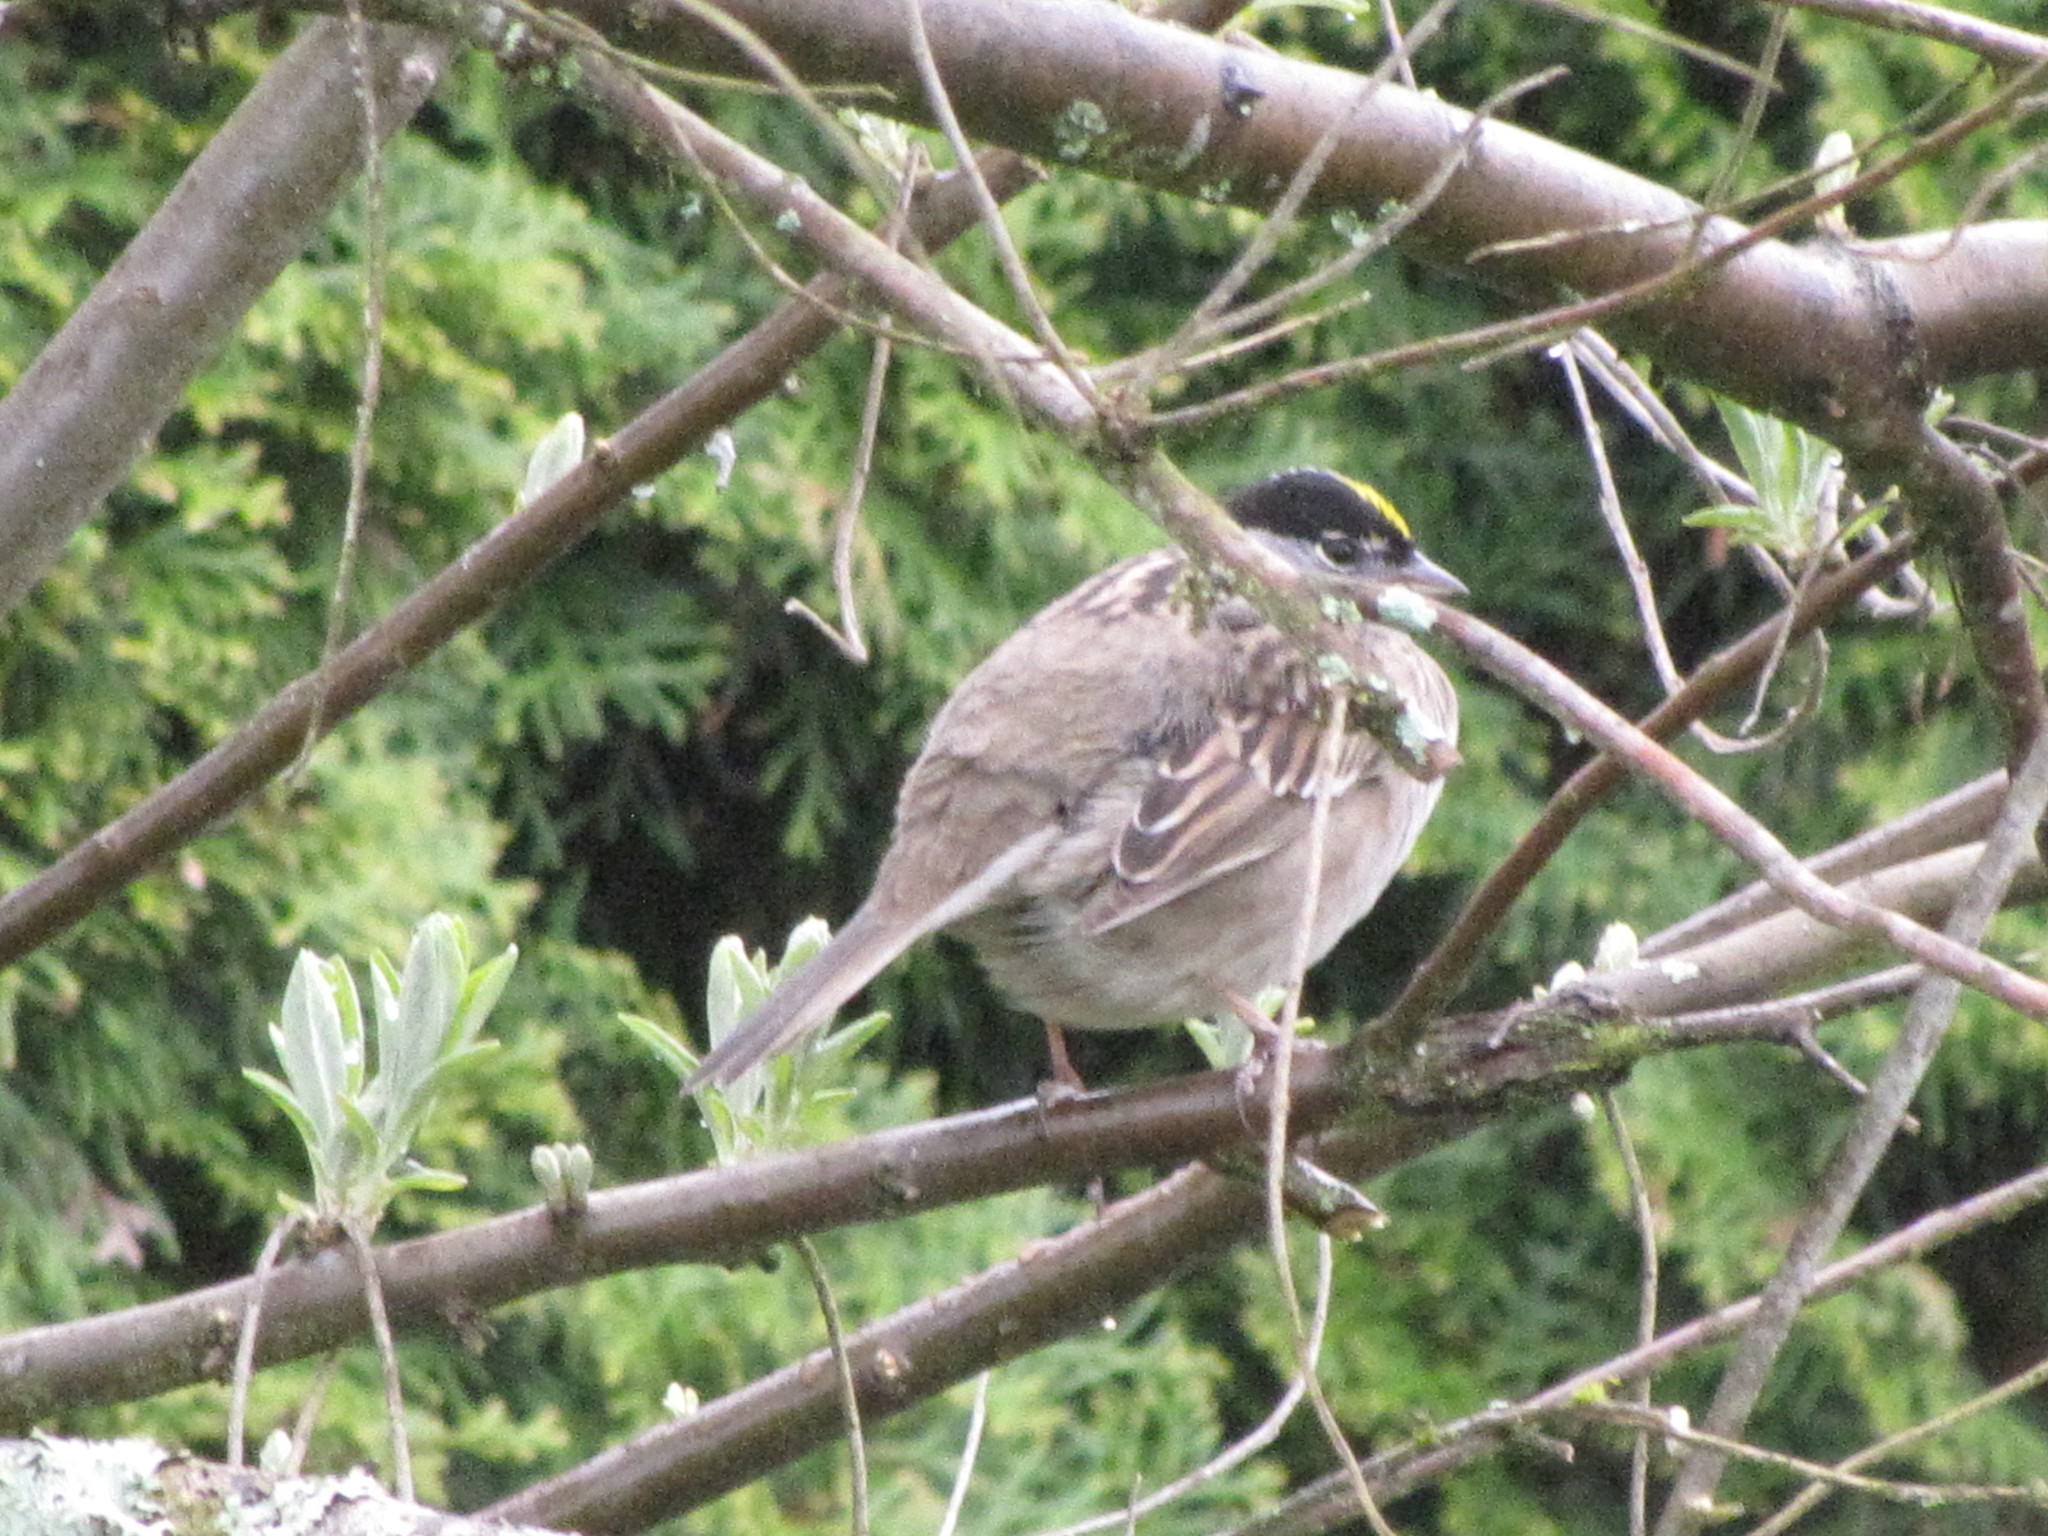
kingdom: Animalia
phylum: Chordata
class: Aves
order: Passeriformes
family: Passerellidae
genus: Zonotrichia
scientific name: Zonotrichia atricapilla
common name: Golden-crowned sparrow
